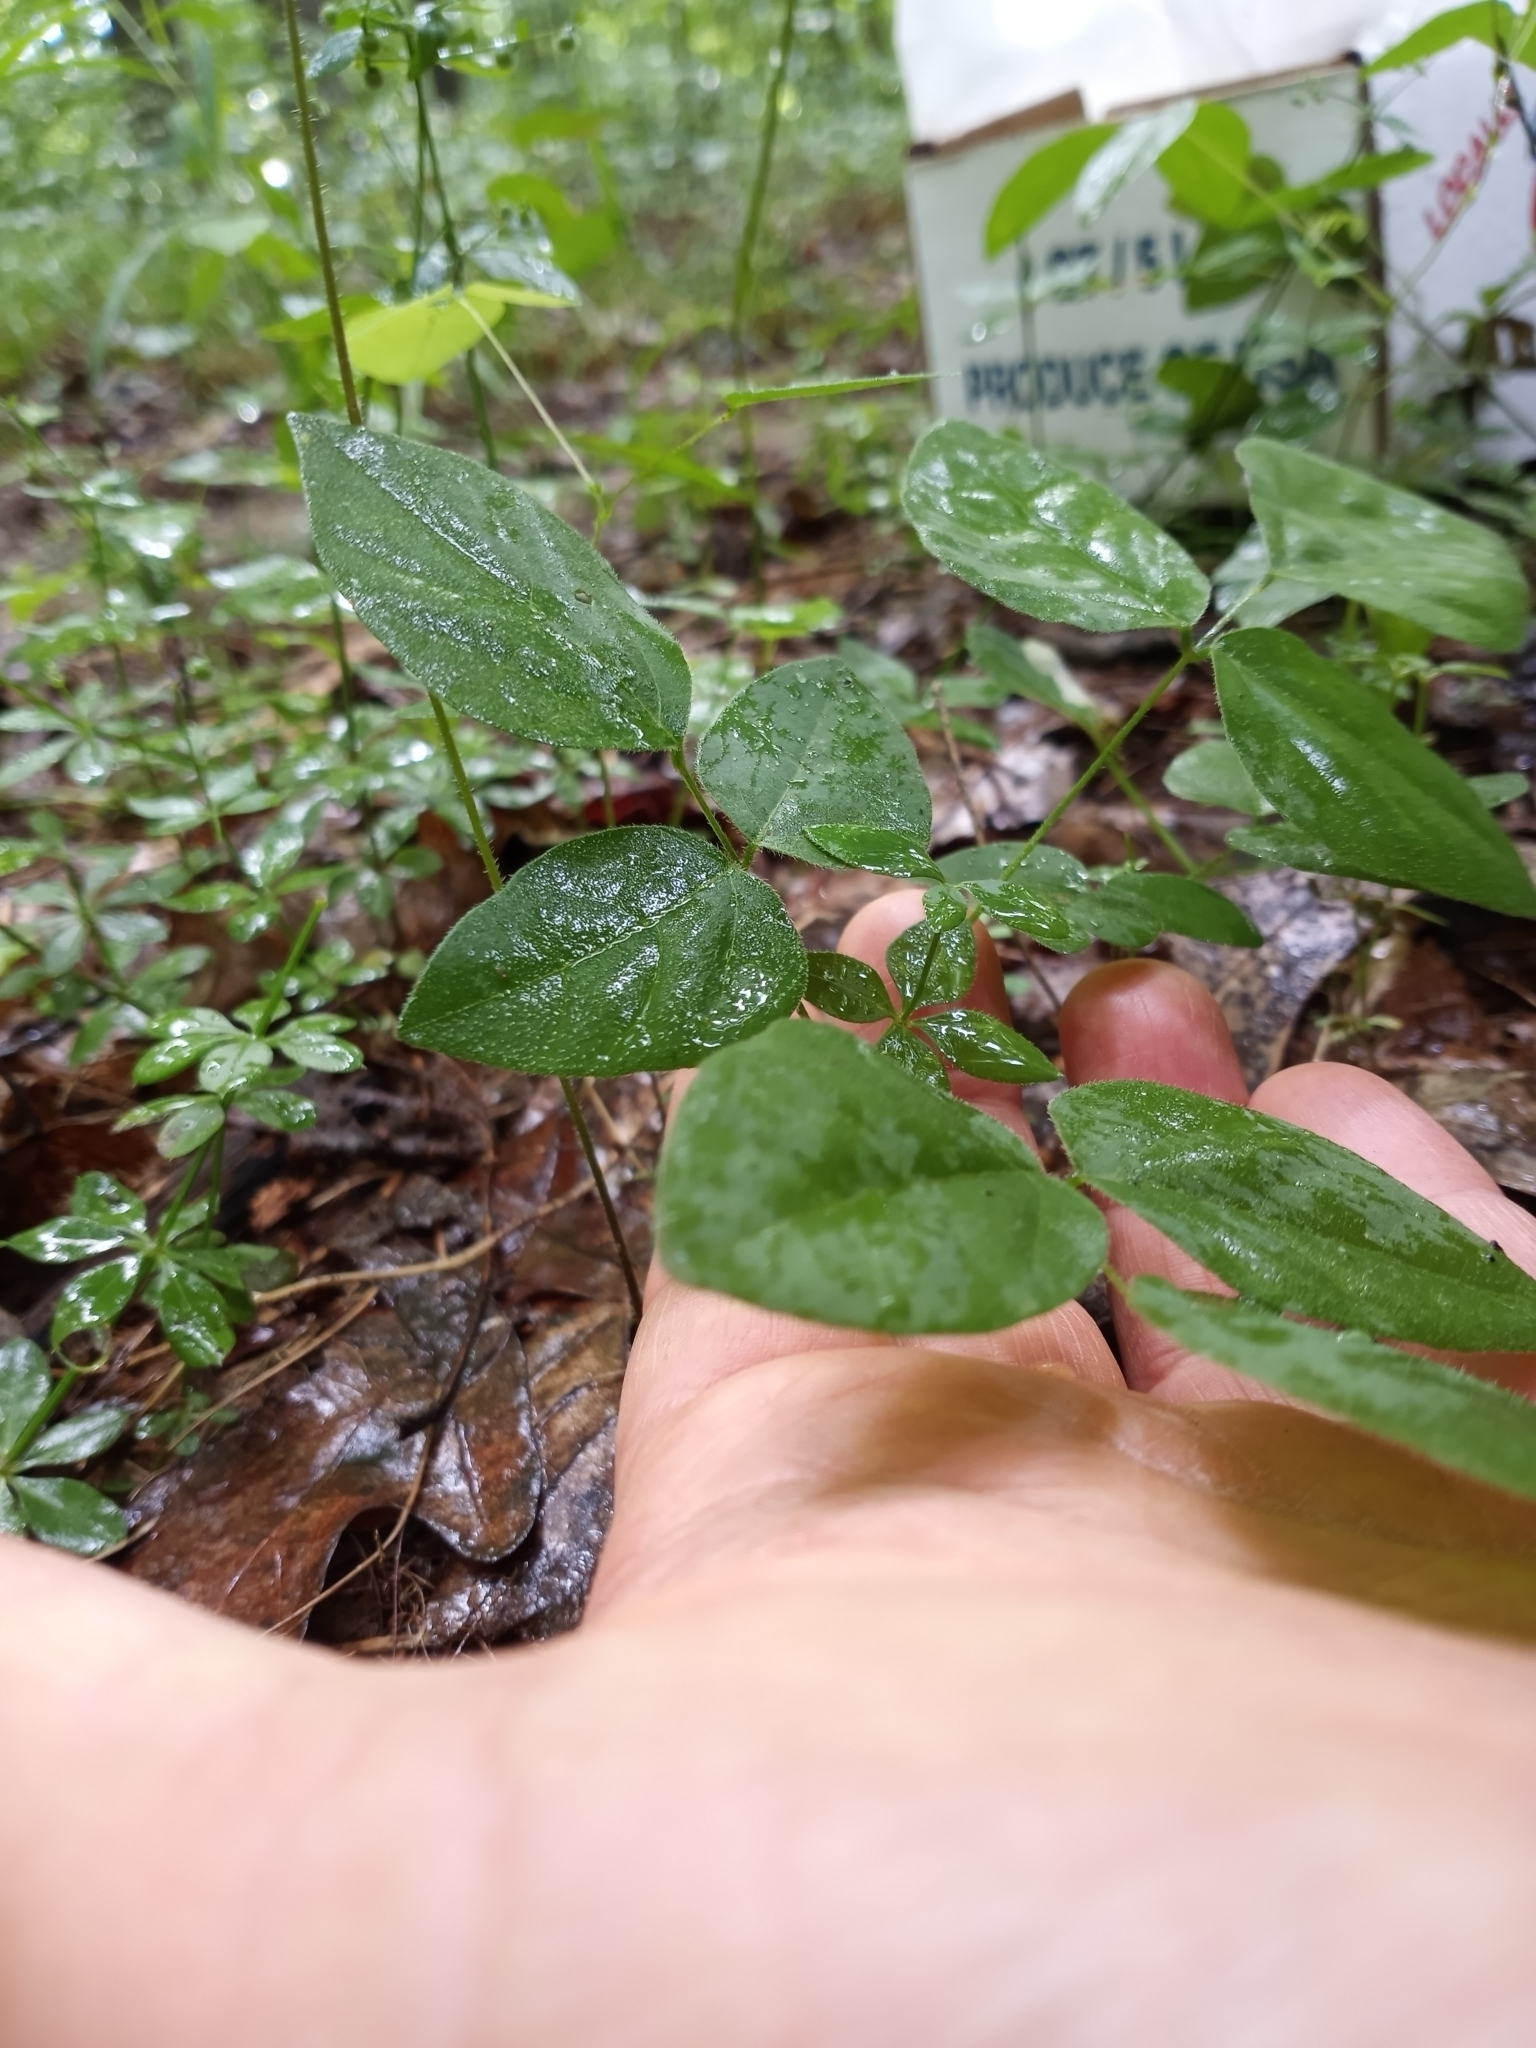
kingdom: Plantae
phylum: Tracheophyta
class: Magnoliopsida
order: Fabales
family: Fabaceae
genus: Hylodesmum
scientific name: Hylodesmum nudiflorum
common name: Bare-stemmed tick-trefoil
